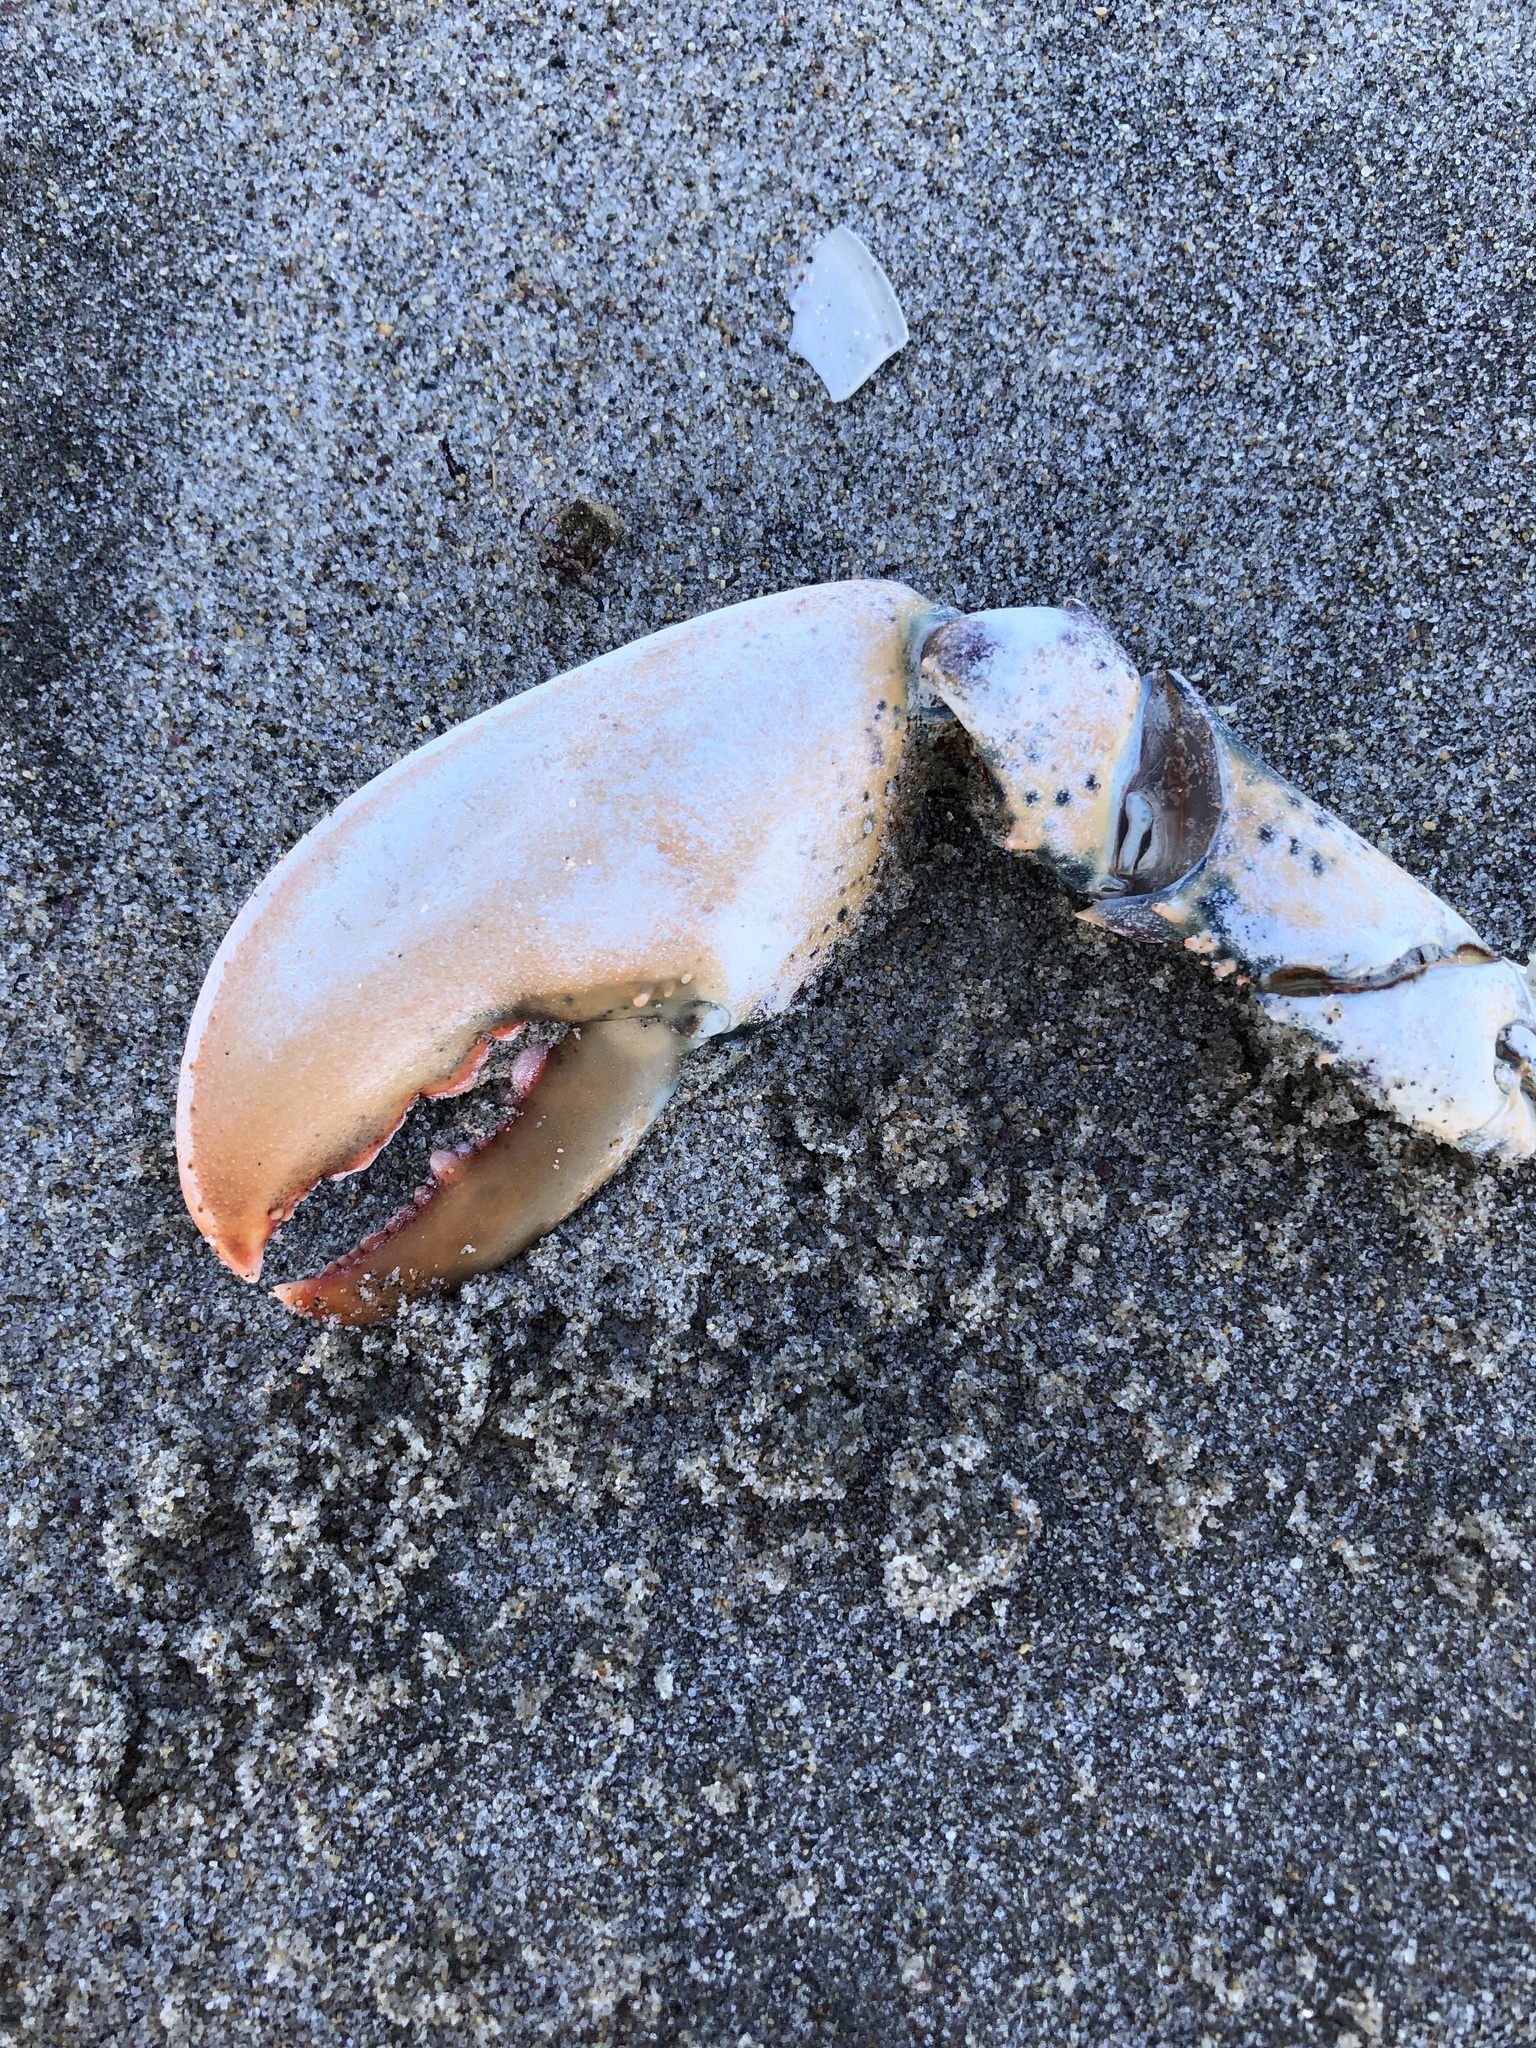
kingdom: Animalia
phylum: Arthropoda
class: Malacostraca
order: Decapoda
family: Nephropidae
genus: Homarus
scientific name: Homarus americanus
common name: American lobster
